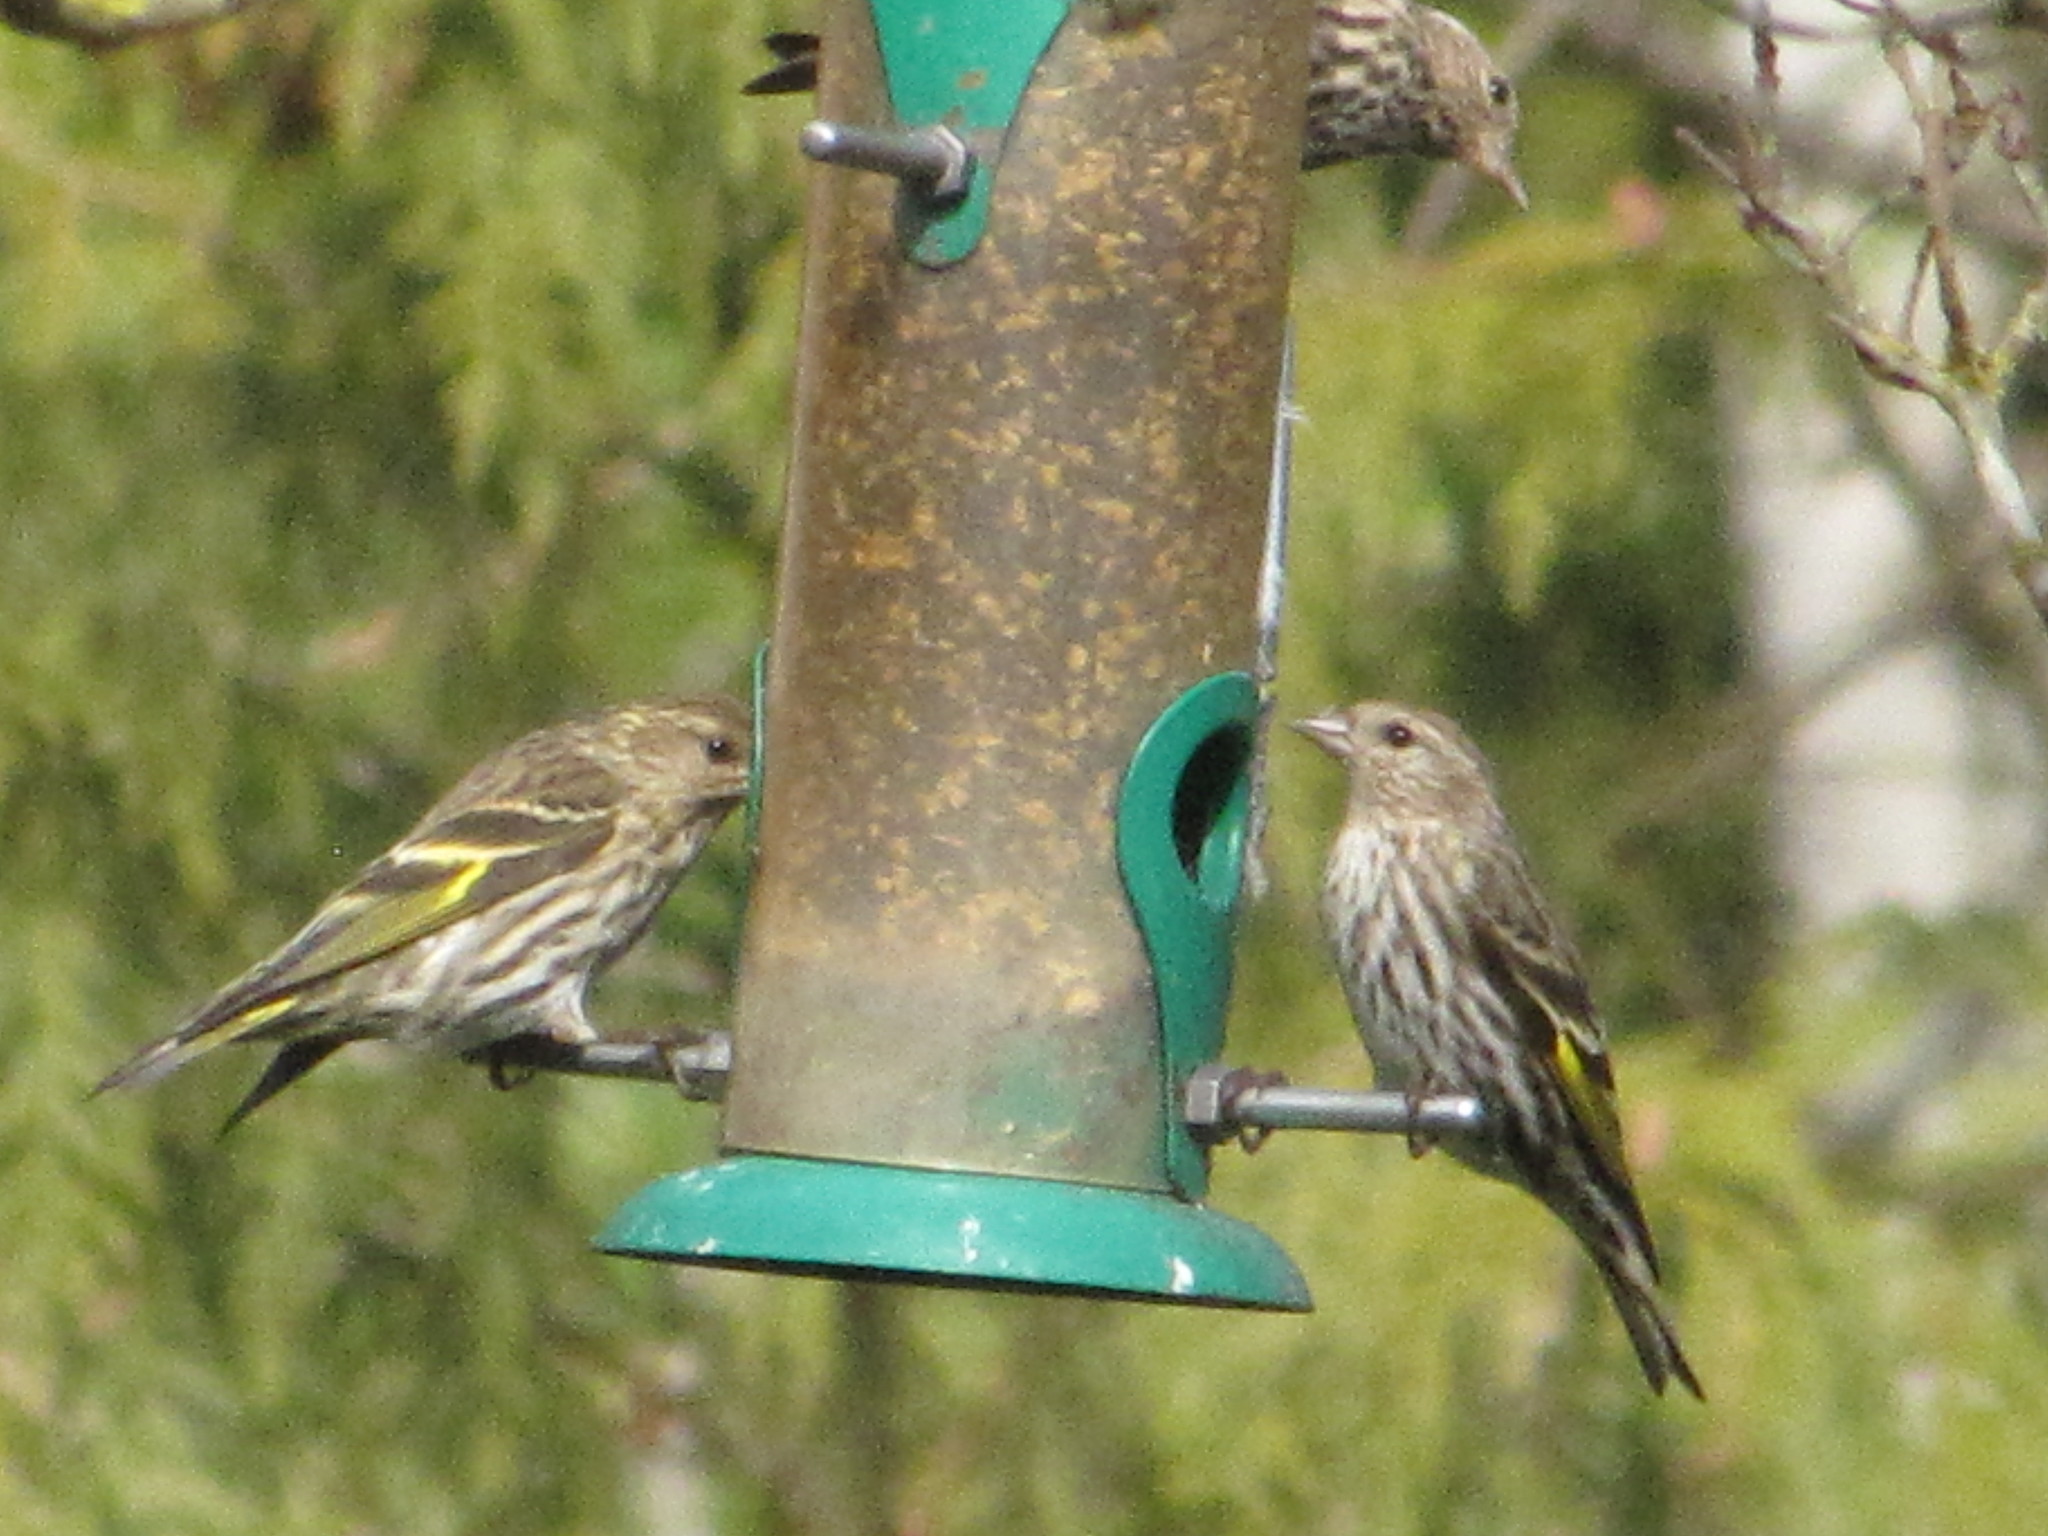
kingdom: Animalia
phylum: Chordata
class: Aves
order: Passeriformes
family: Fringillidae
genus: Spinus
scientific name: Spinus pinus
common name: Pine siskin
